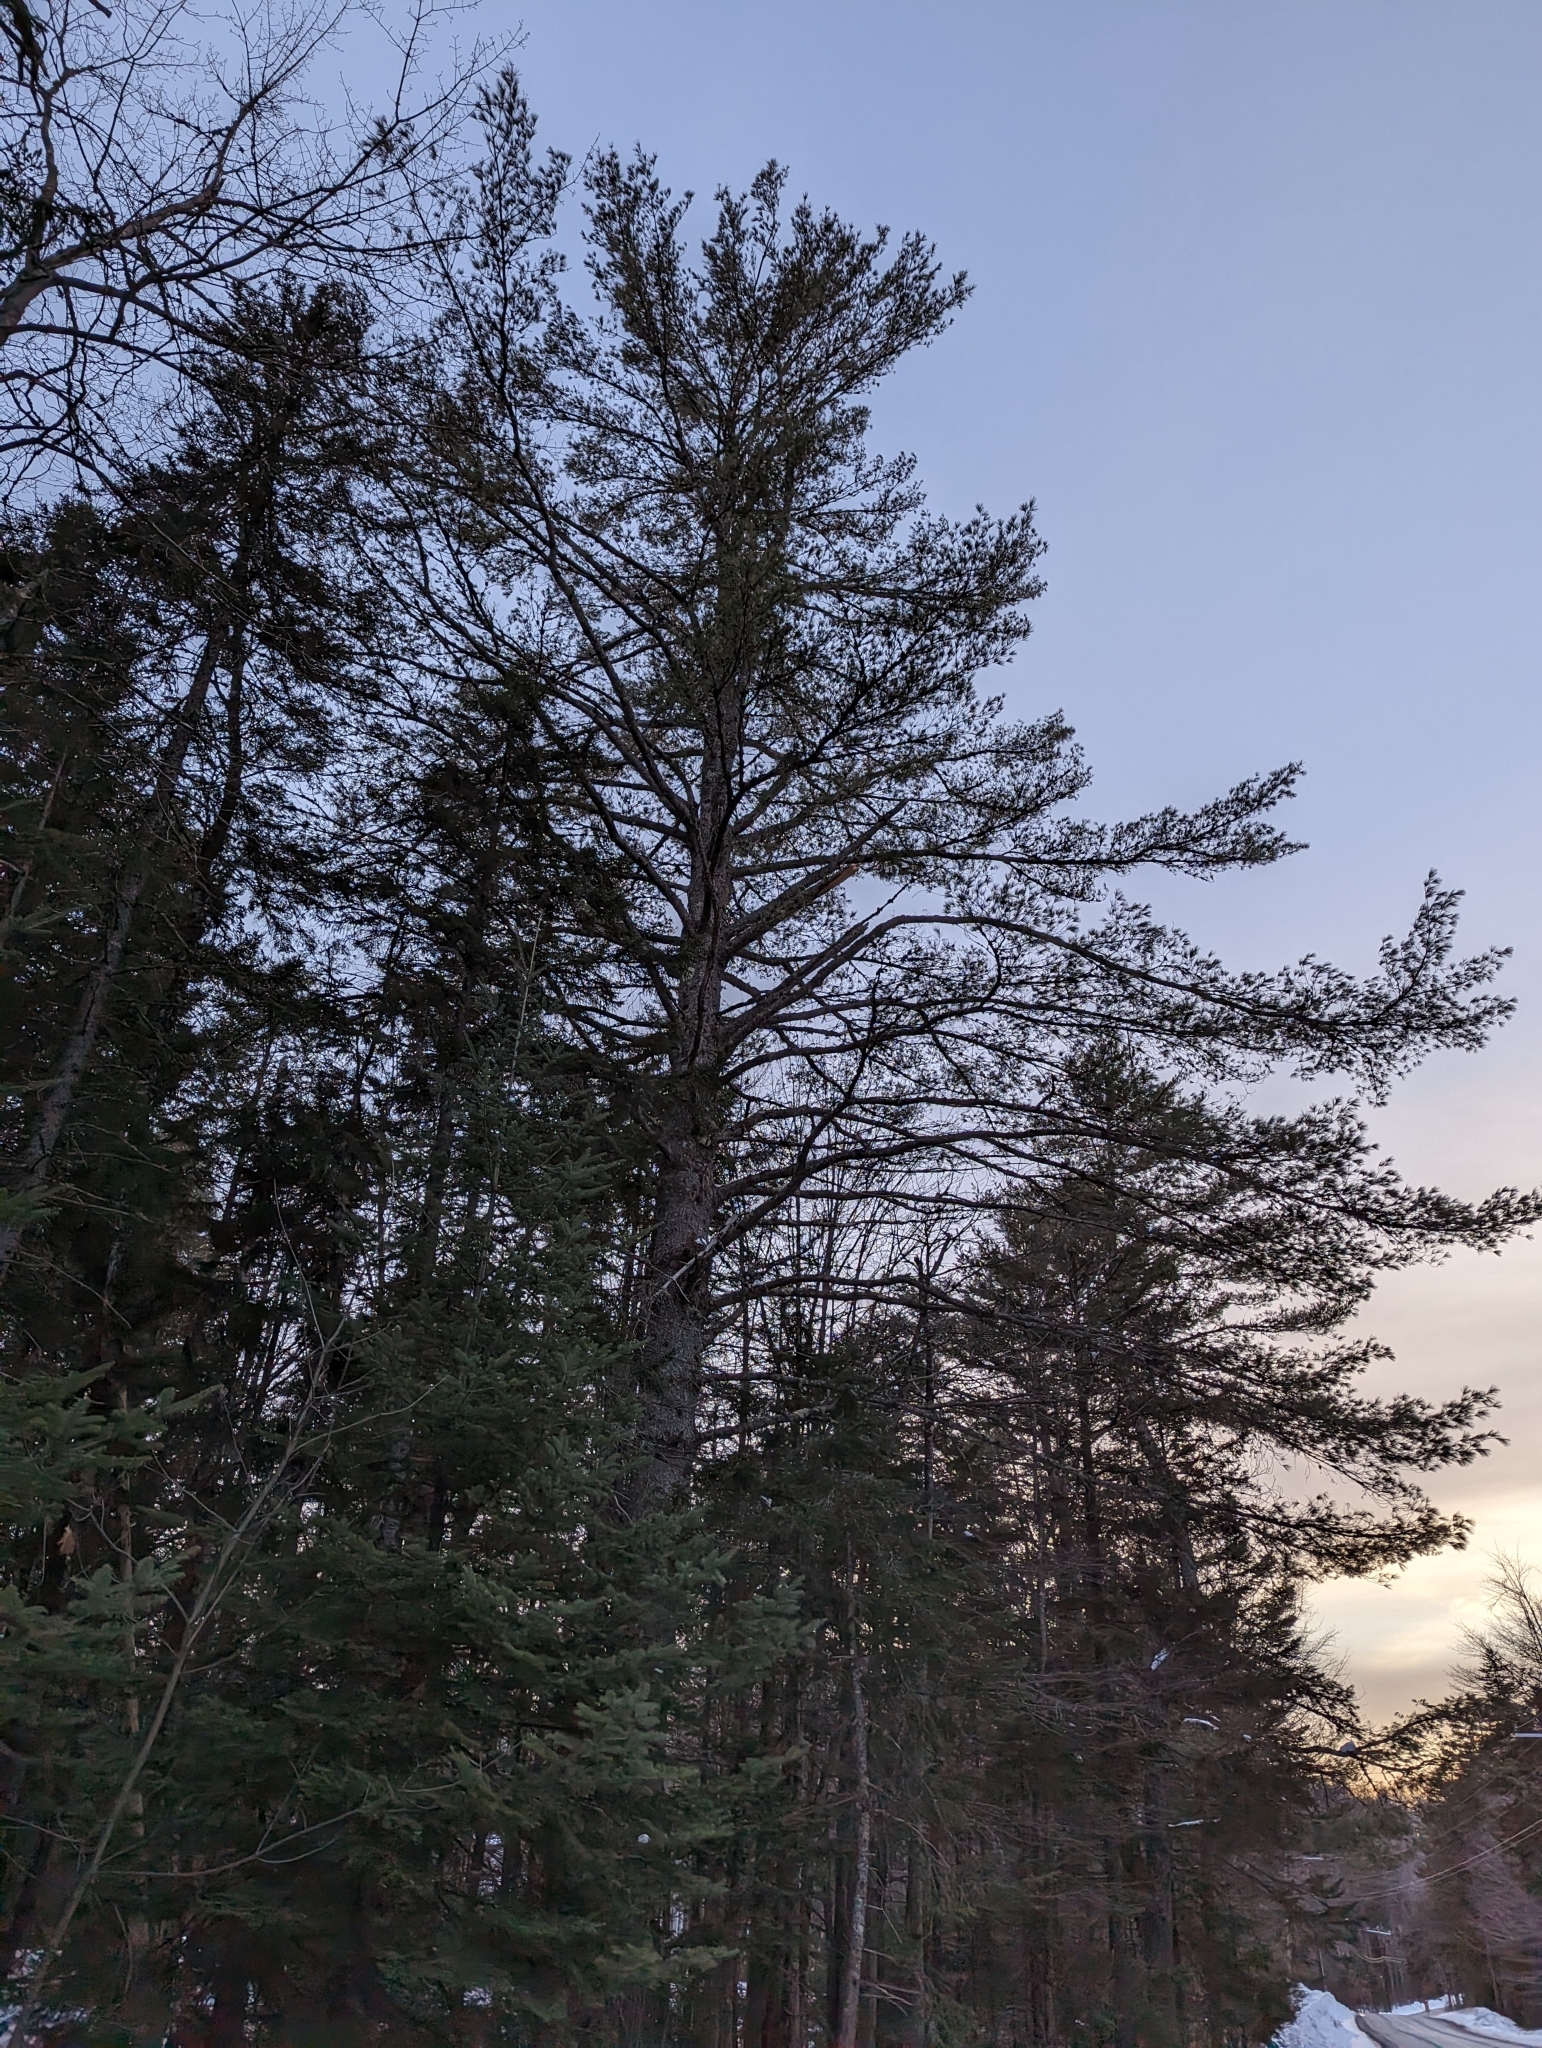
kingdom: Plantae
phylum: Tracheophyta
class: Pinopsida
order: Pinales
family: Pinaceae
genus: Pinus
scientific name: Pinus strobus
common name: Weymouth pine
